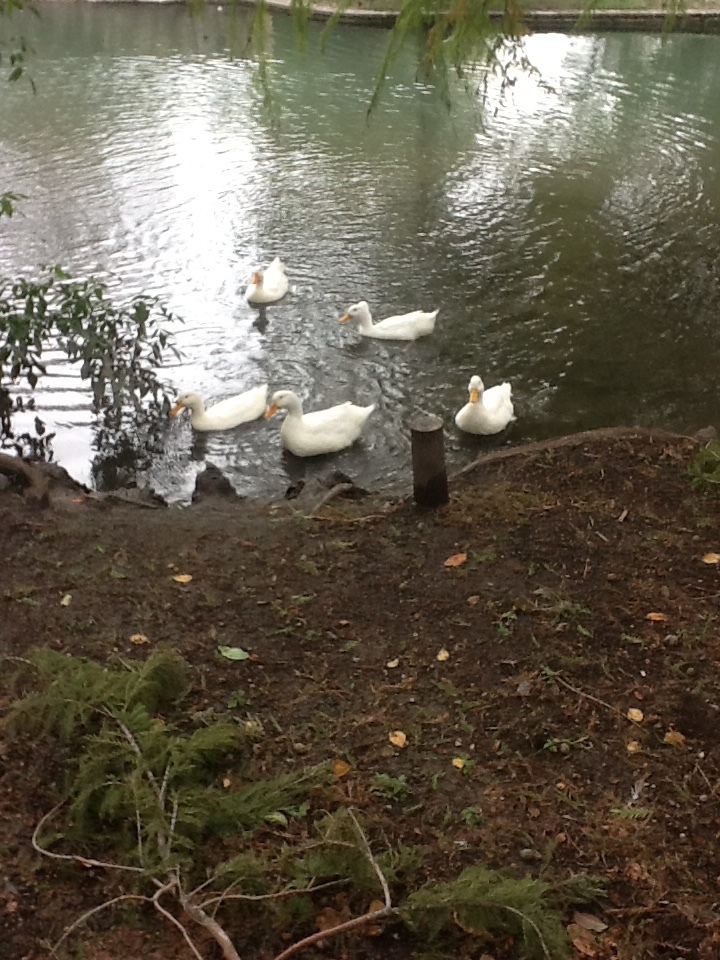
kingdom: Animalia
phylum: Chordata
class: Aves
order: Anseriformes
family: Anatidae
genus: Anas
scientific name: Anas platyrhynchos
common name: Mallard
